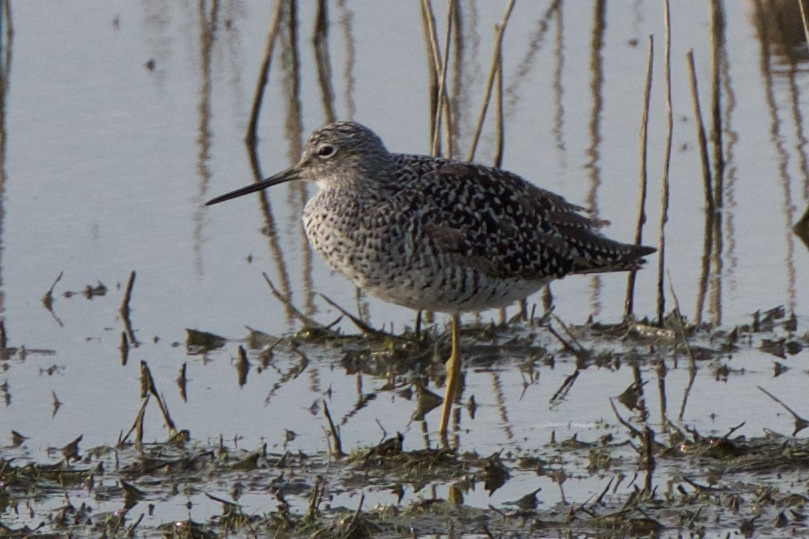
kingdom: Animalia
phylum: Chordata
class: Aves
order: Charadriiformes
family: Scolopacidae
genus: Tringa
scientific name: Tringa melanoleuca
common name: Greater yellowlegs
